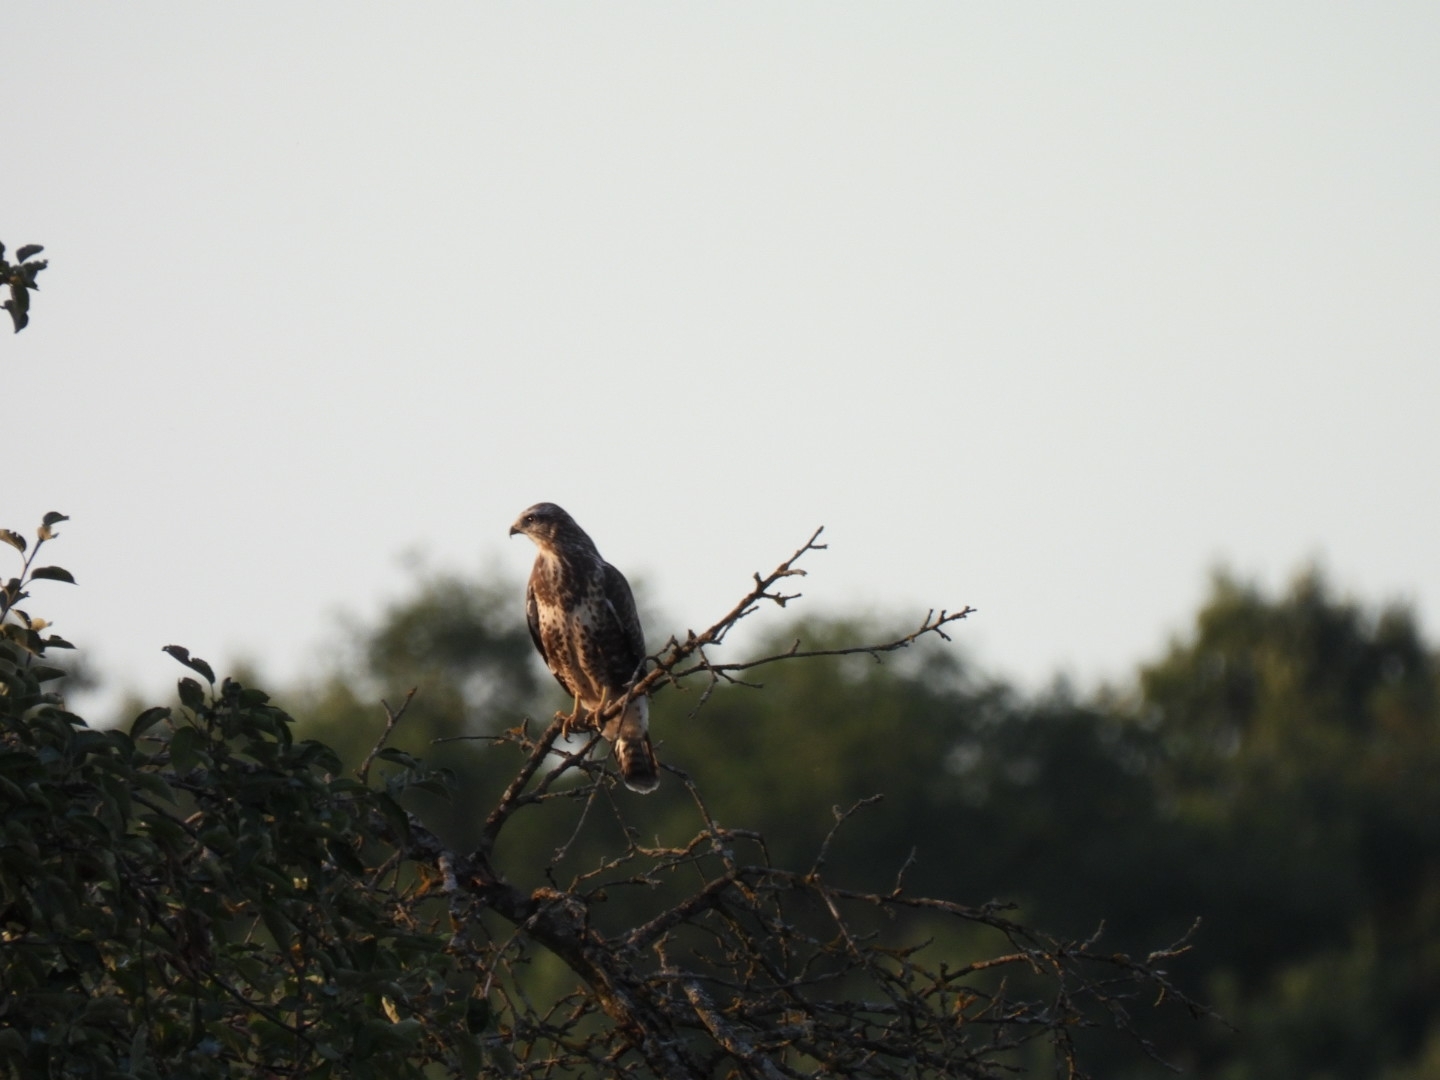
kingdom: Animalia
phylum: Chordata
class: Aves
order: Accipitriformes
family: Accipitridae
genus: Buteo
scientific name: Buteo buteo
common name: Common buzzard
